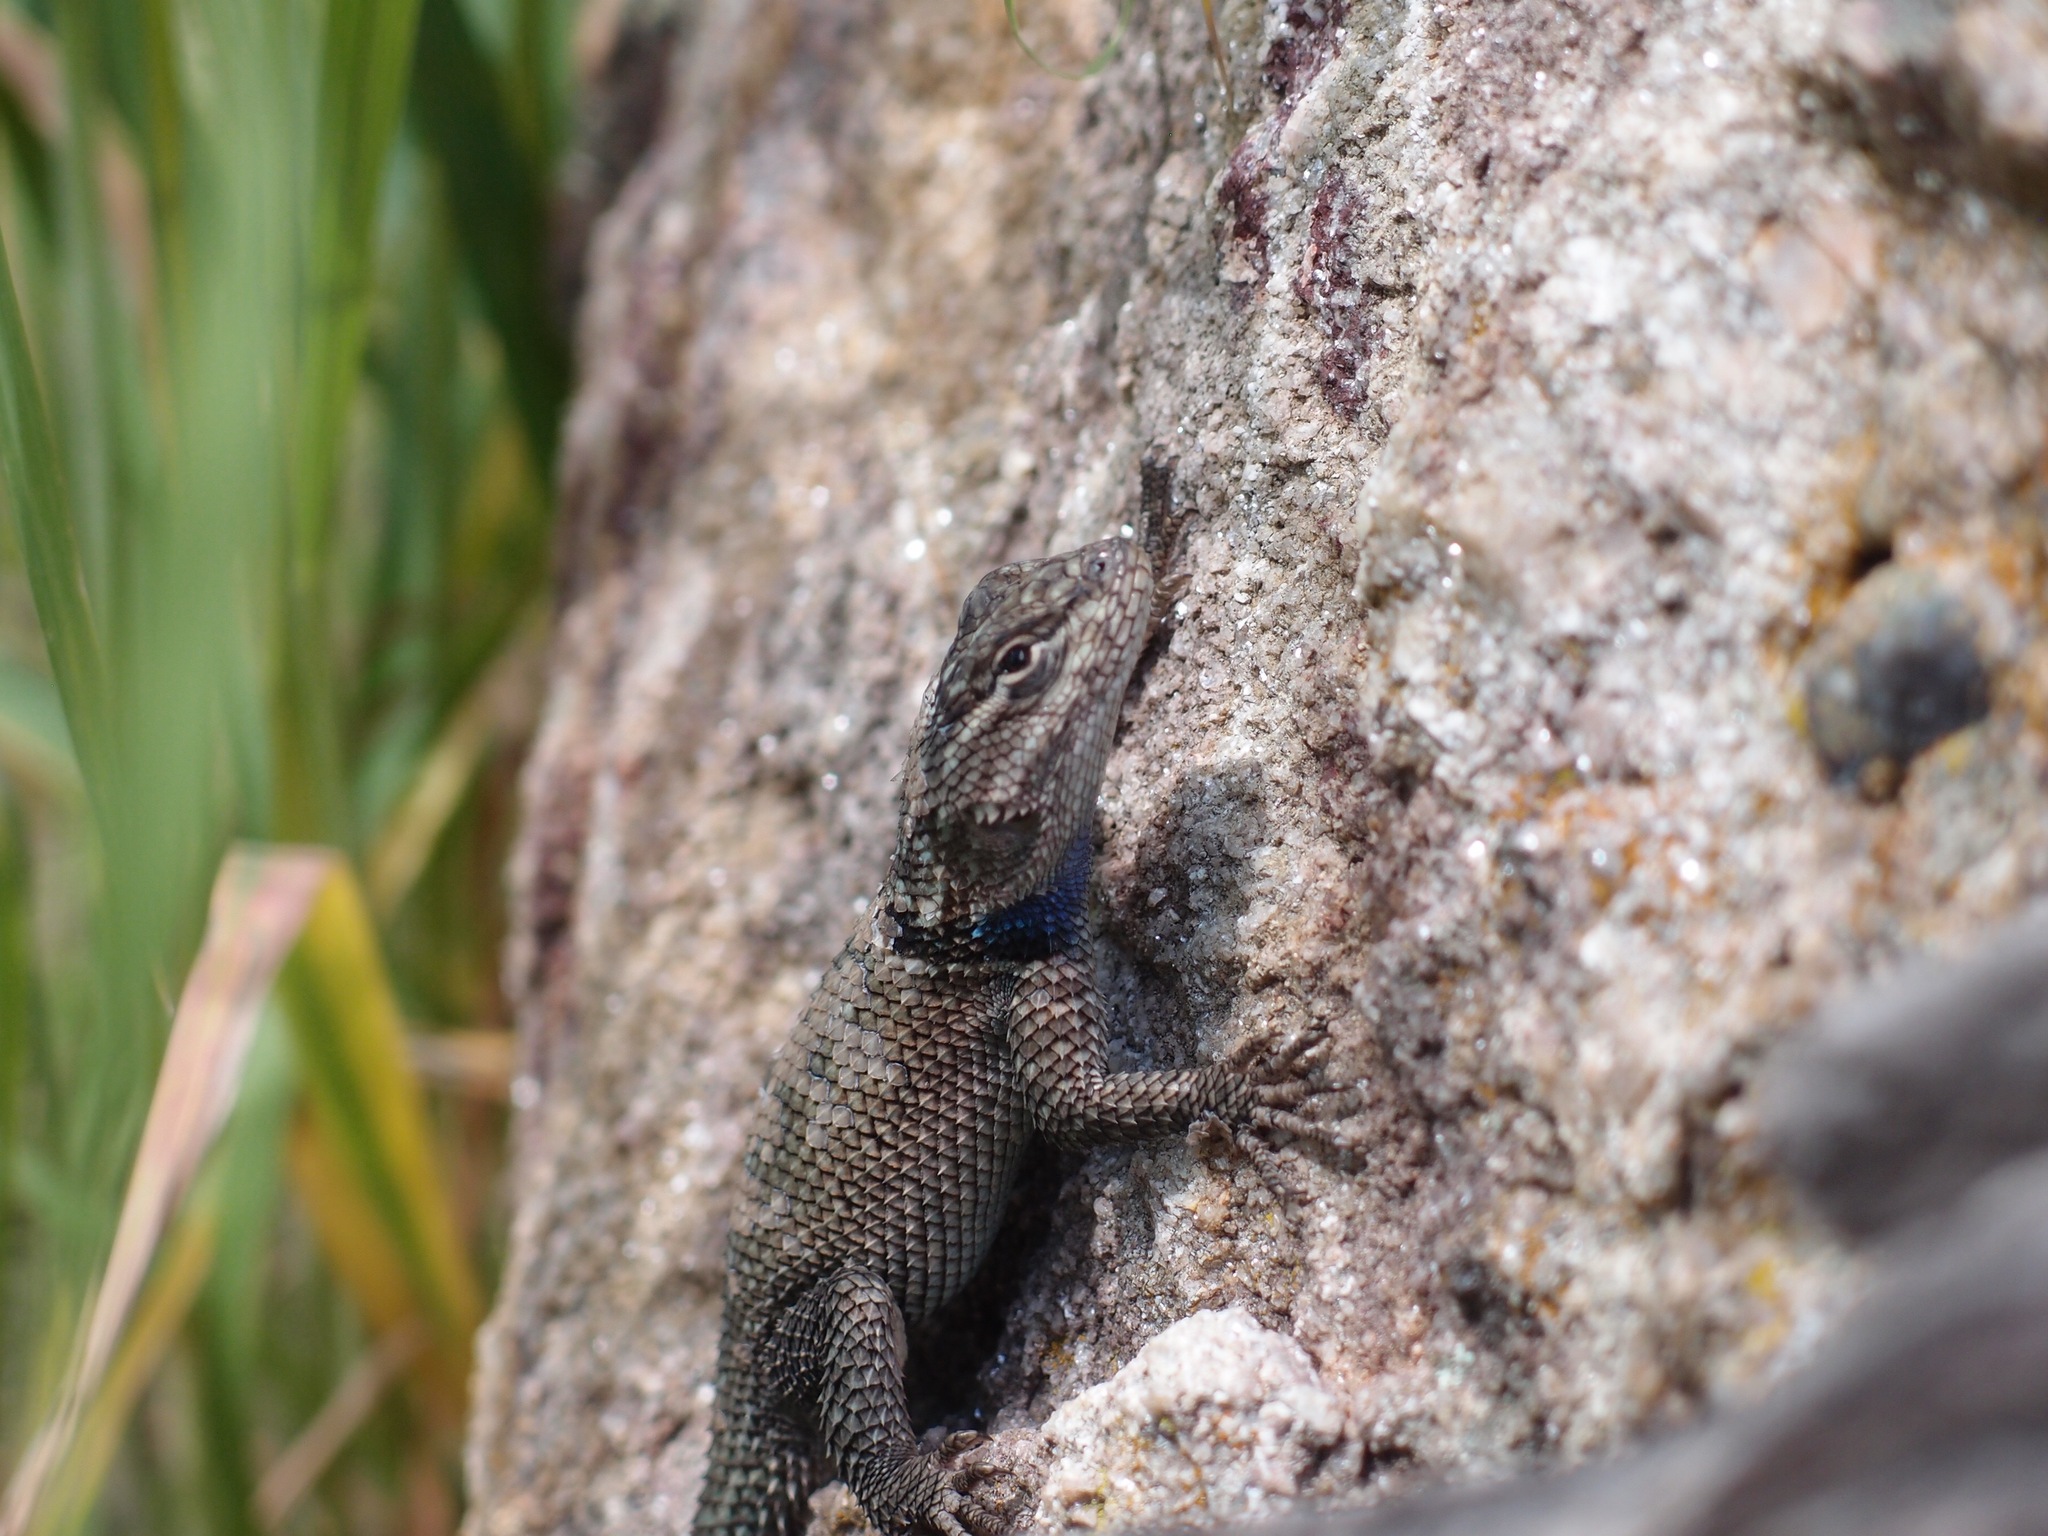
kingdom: Animalia
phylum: Chordata
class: Squamata
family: Phrynosomatidae
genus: Sceloporus
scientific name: Sceloporus jarrovii
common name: Yarrow's spiny lizard
